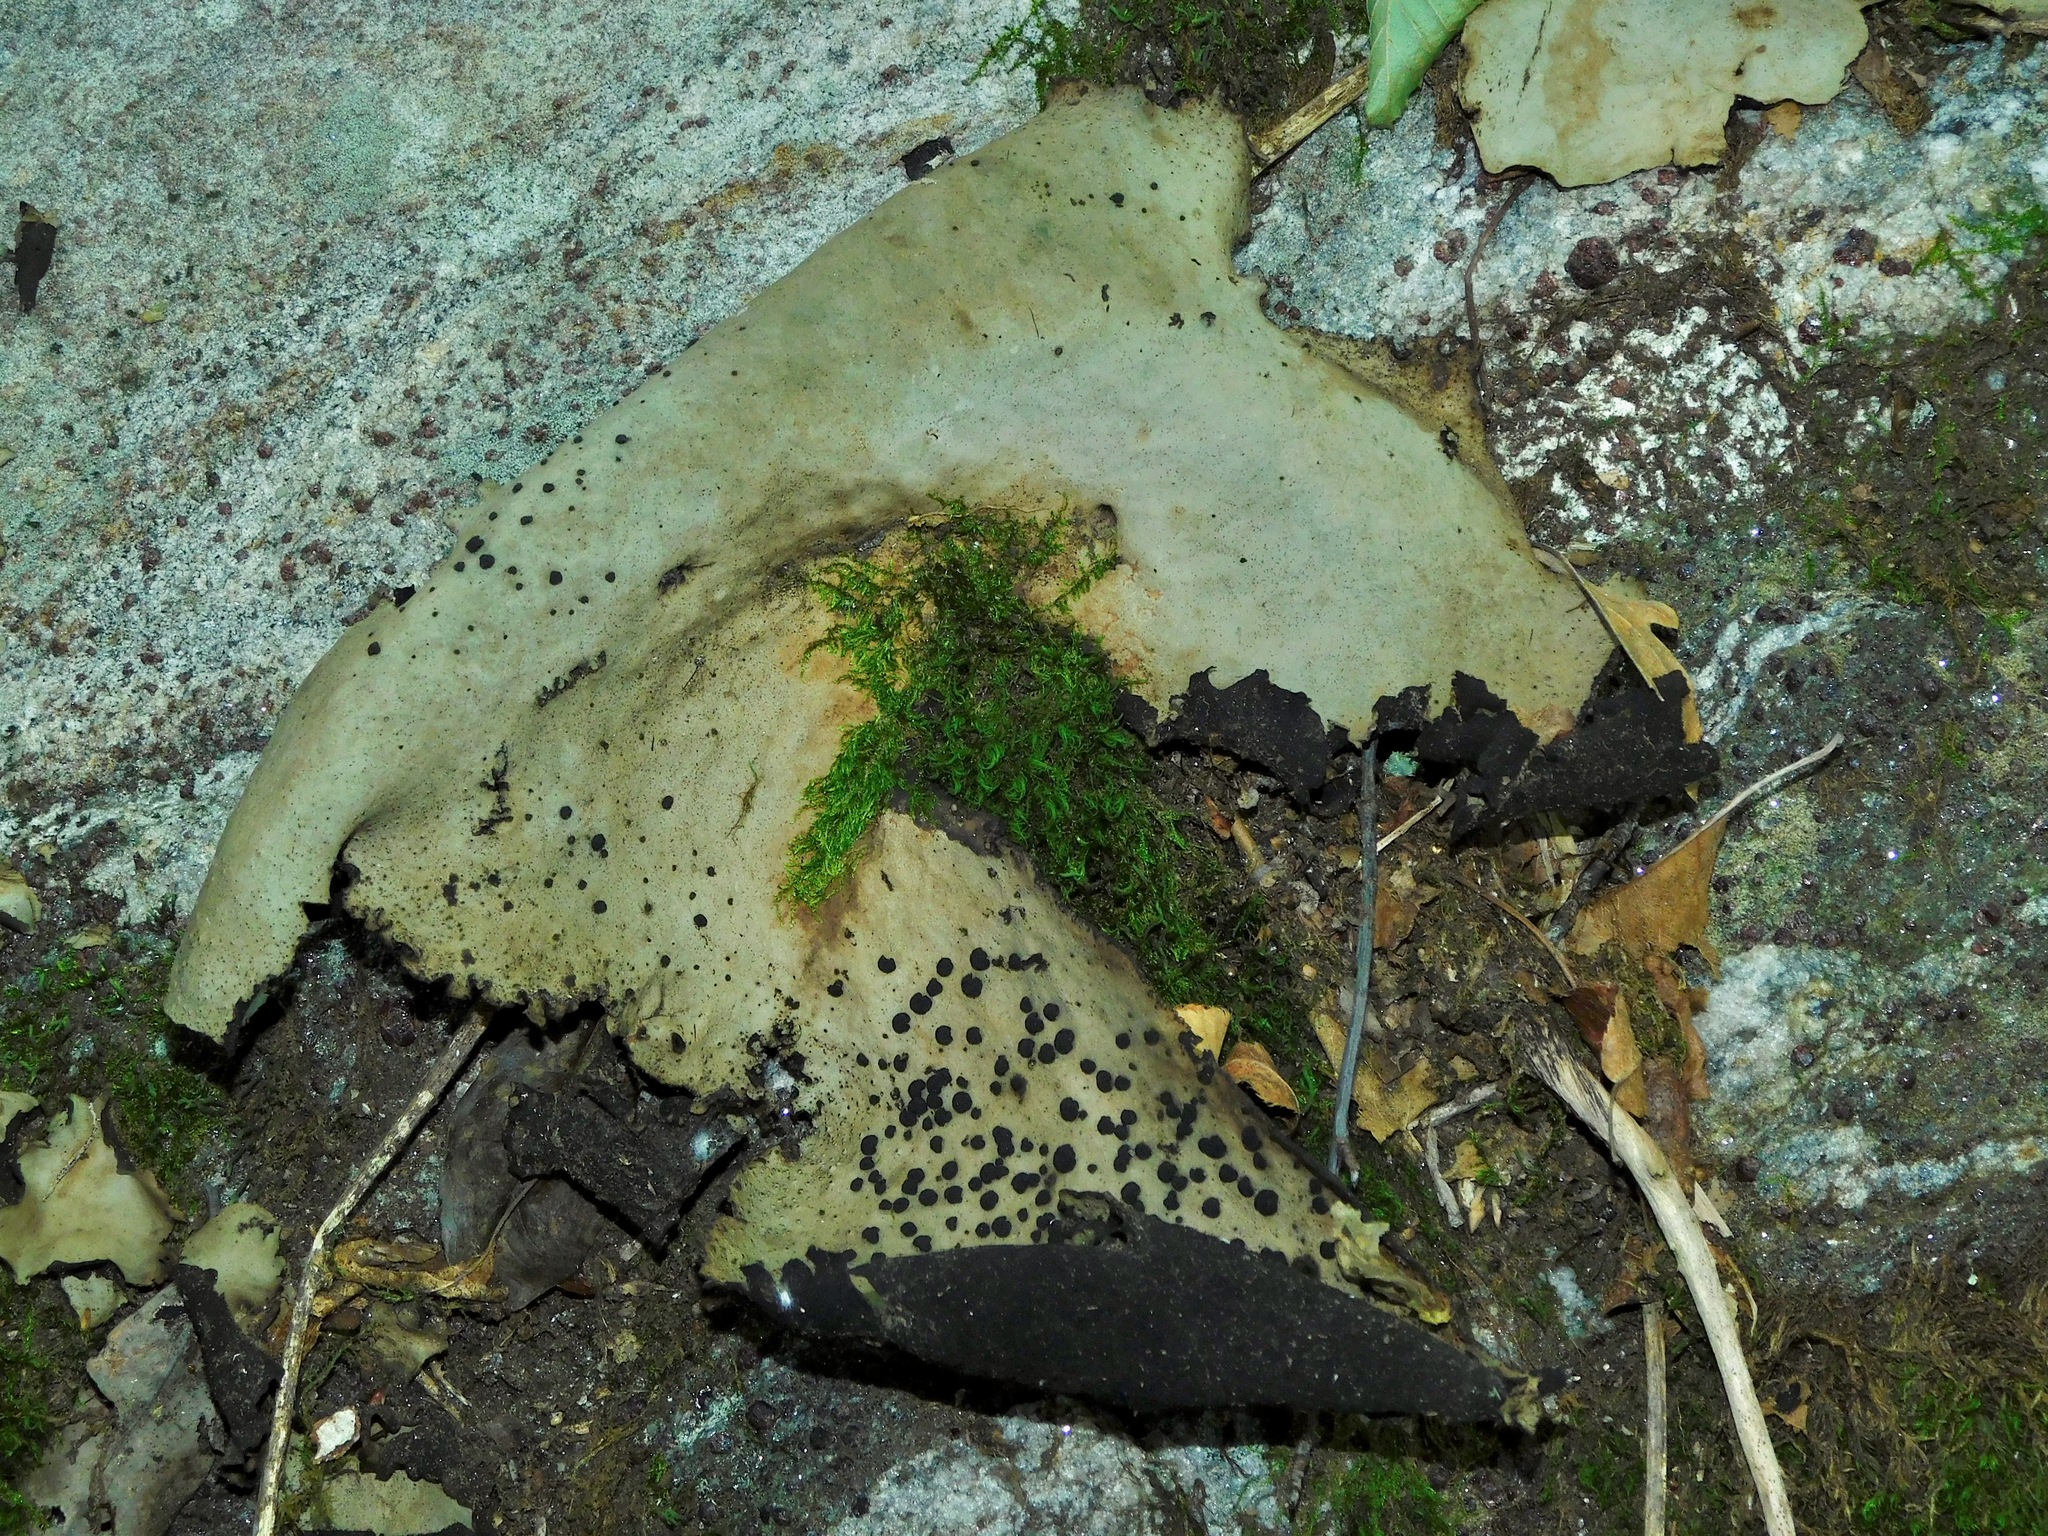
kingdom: Fungi
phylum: Ascomycota
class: Lecanoromycetes
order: Umbilicariales
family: Umbilicariaceae
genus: Umbilicaria
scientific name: Umbilicaria mammulata
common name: Smooth rock tripe
